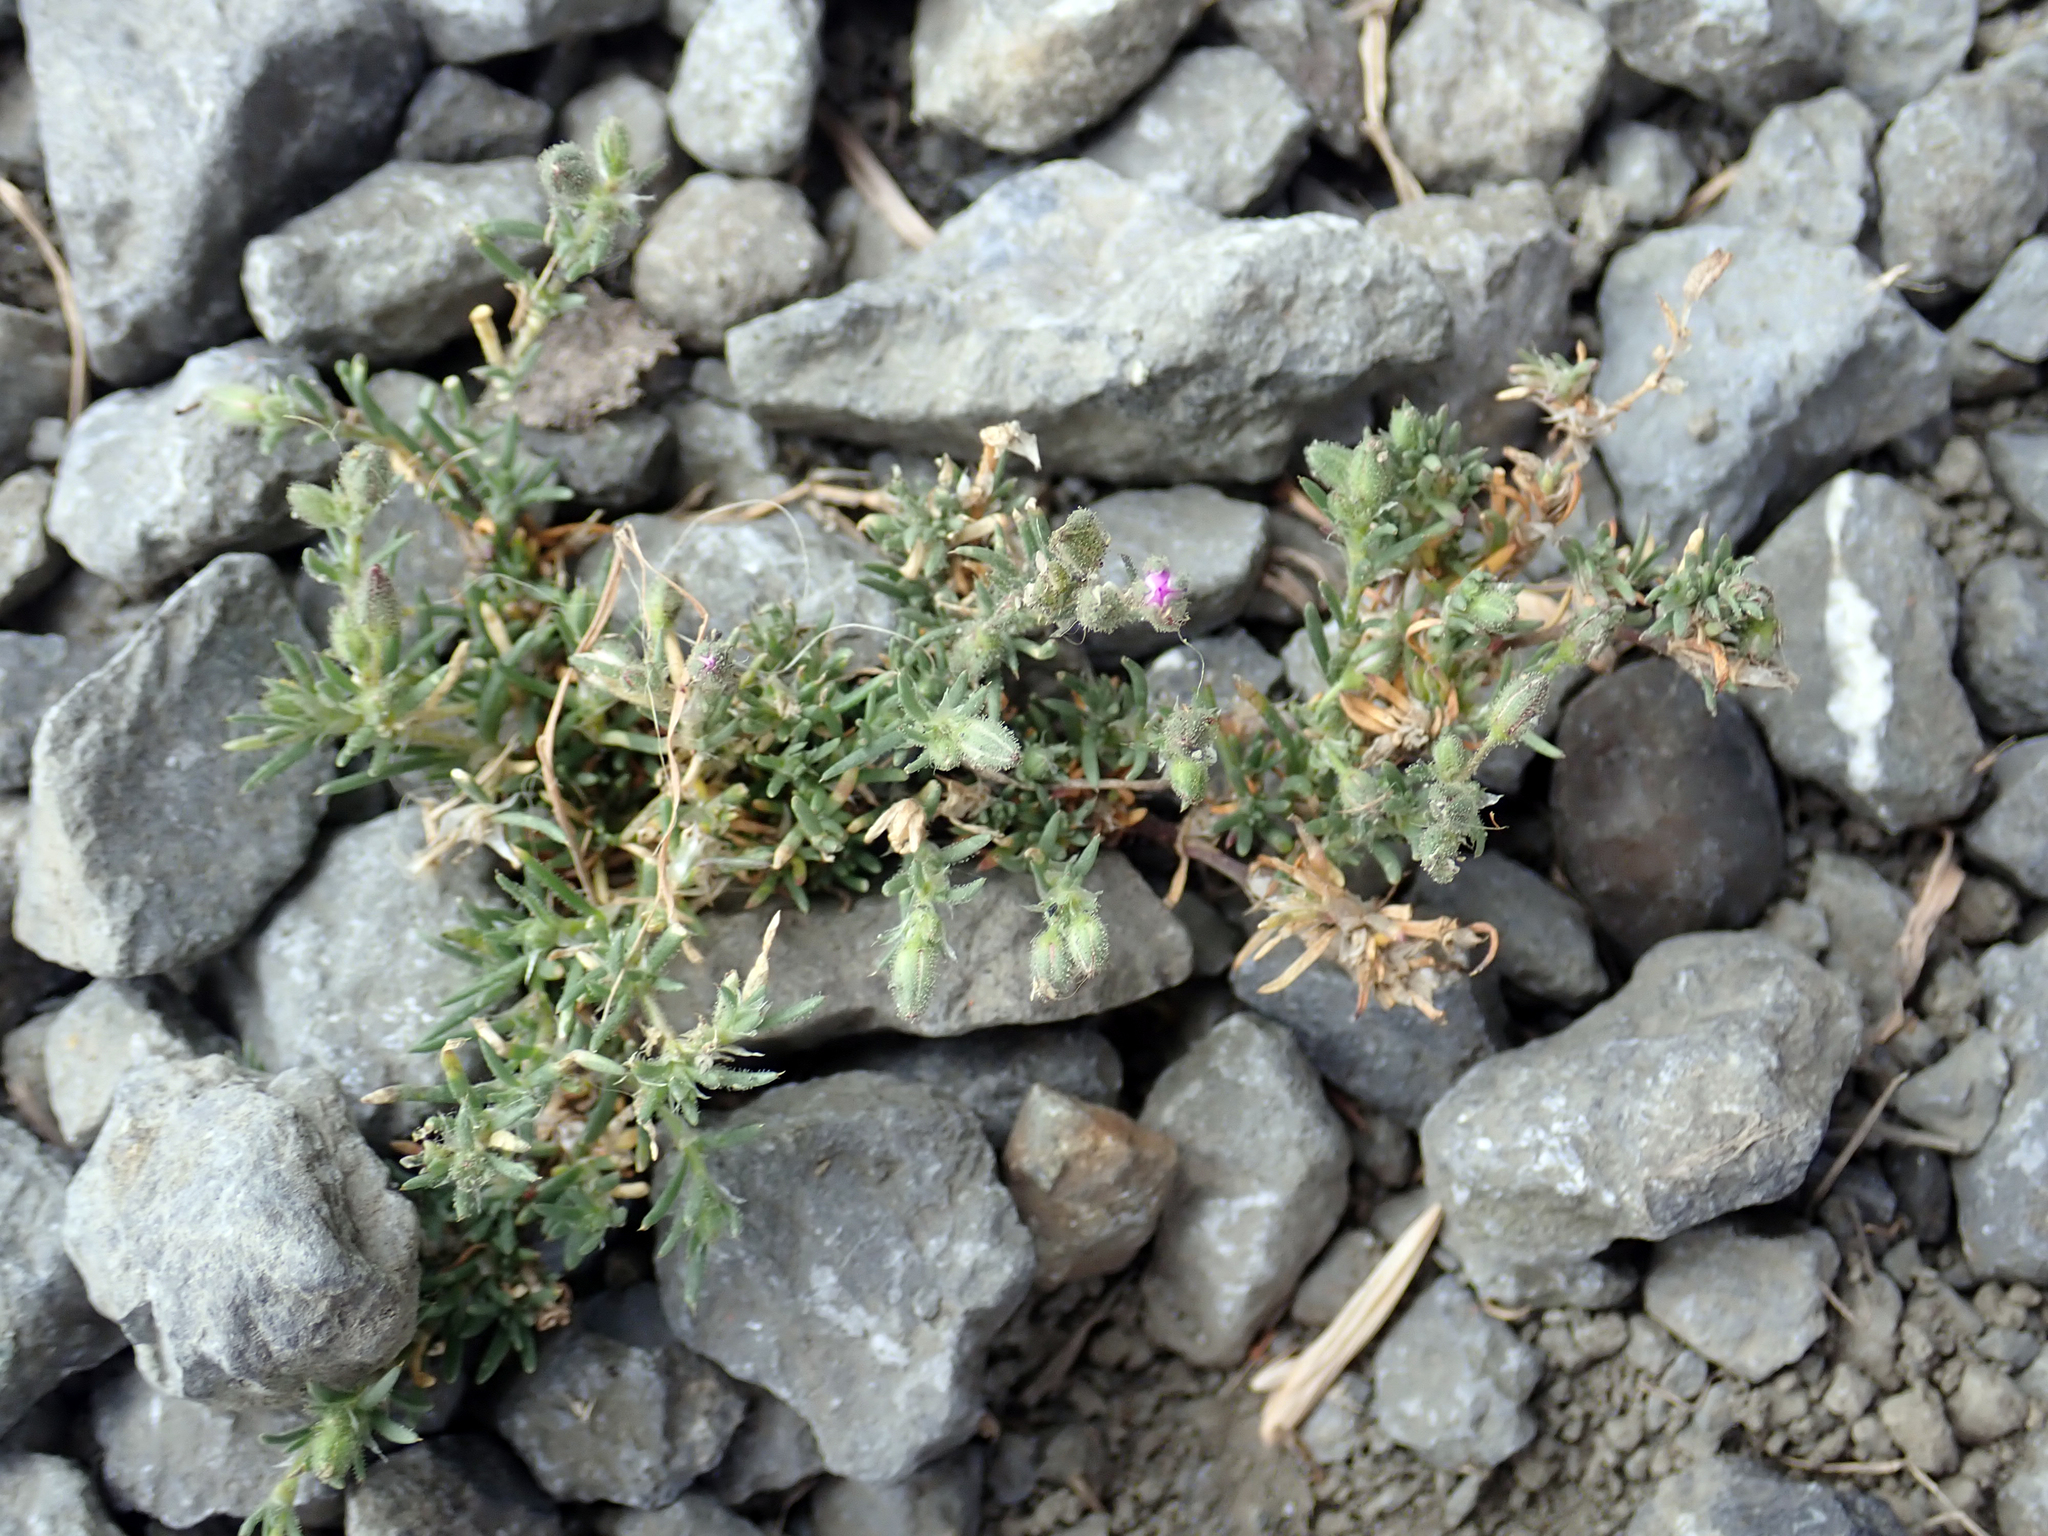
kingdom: Plantae
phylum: Tracheophyta
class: Magnoliopsida
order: Caryophyllales
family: Caryophyllaceae
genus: Spergularia
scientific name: Spergularia rubra
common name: Red sand-spurrey
